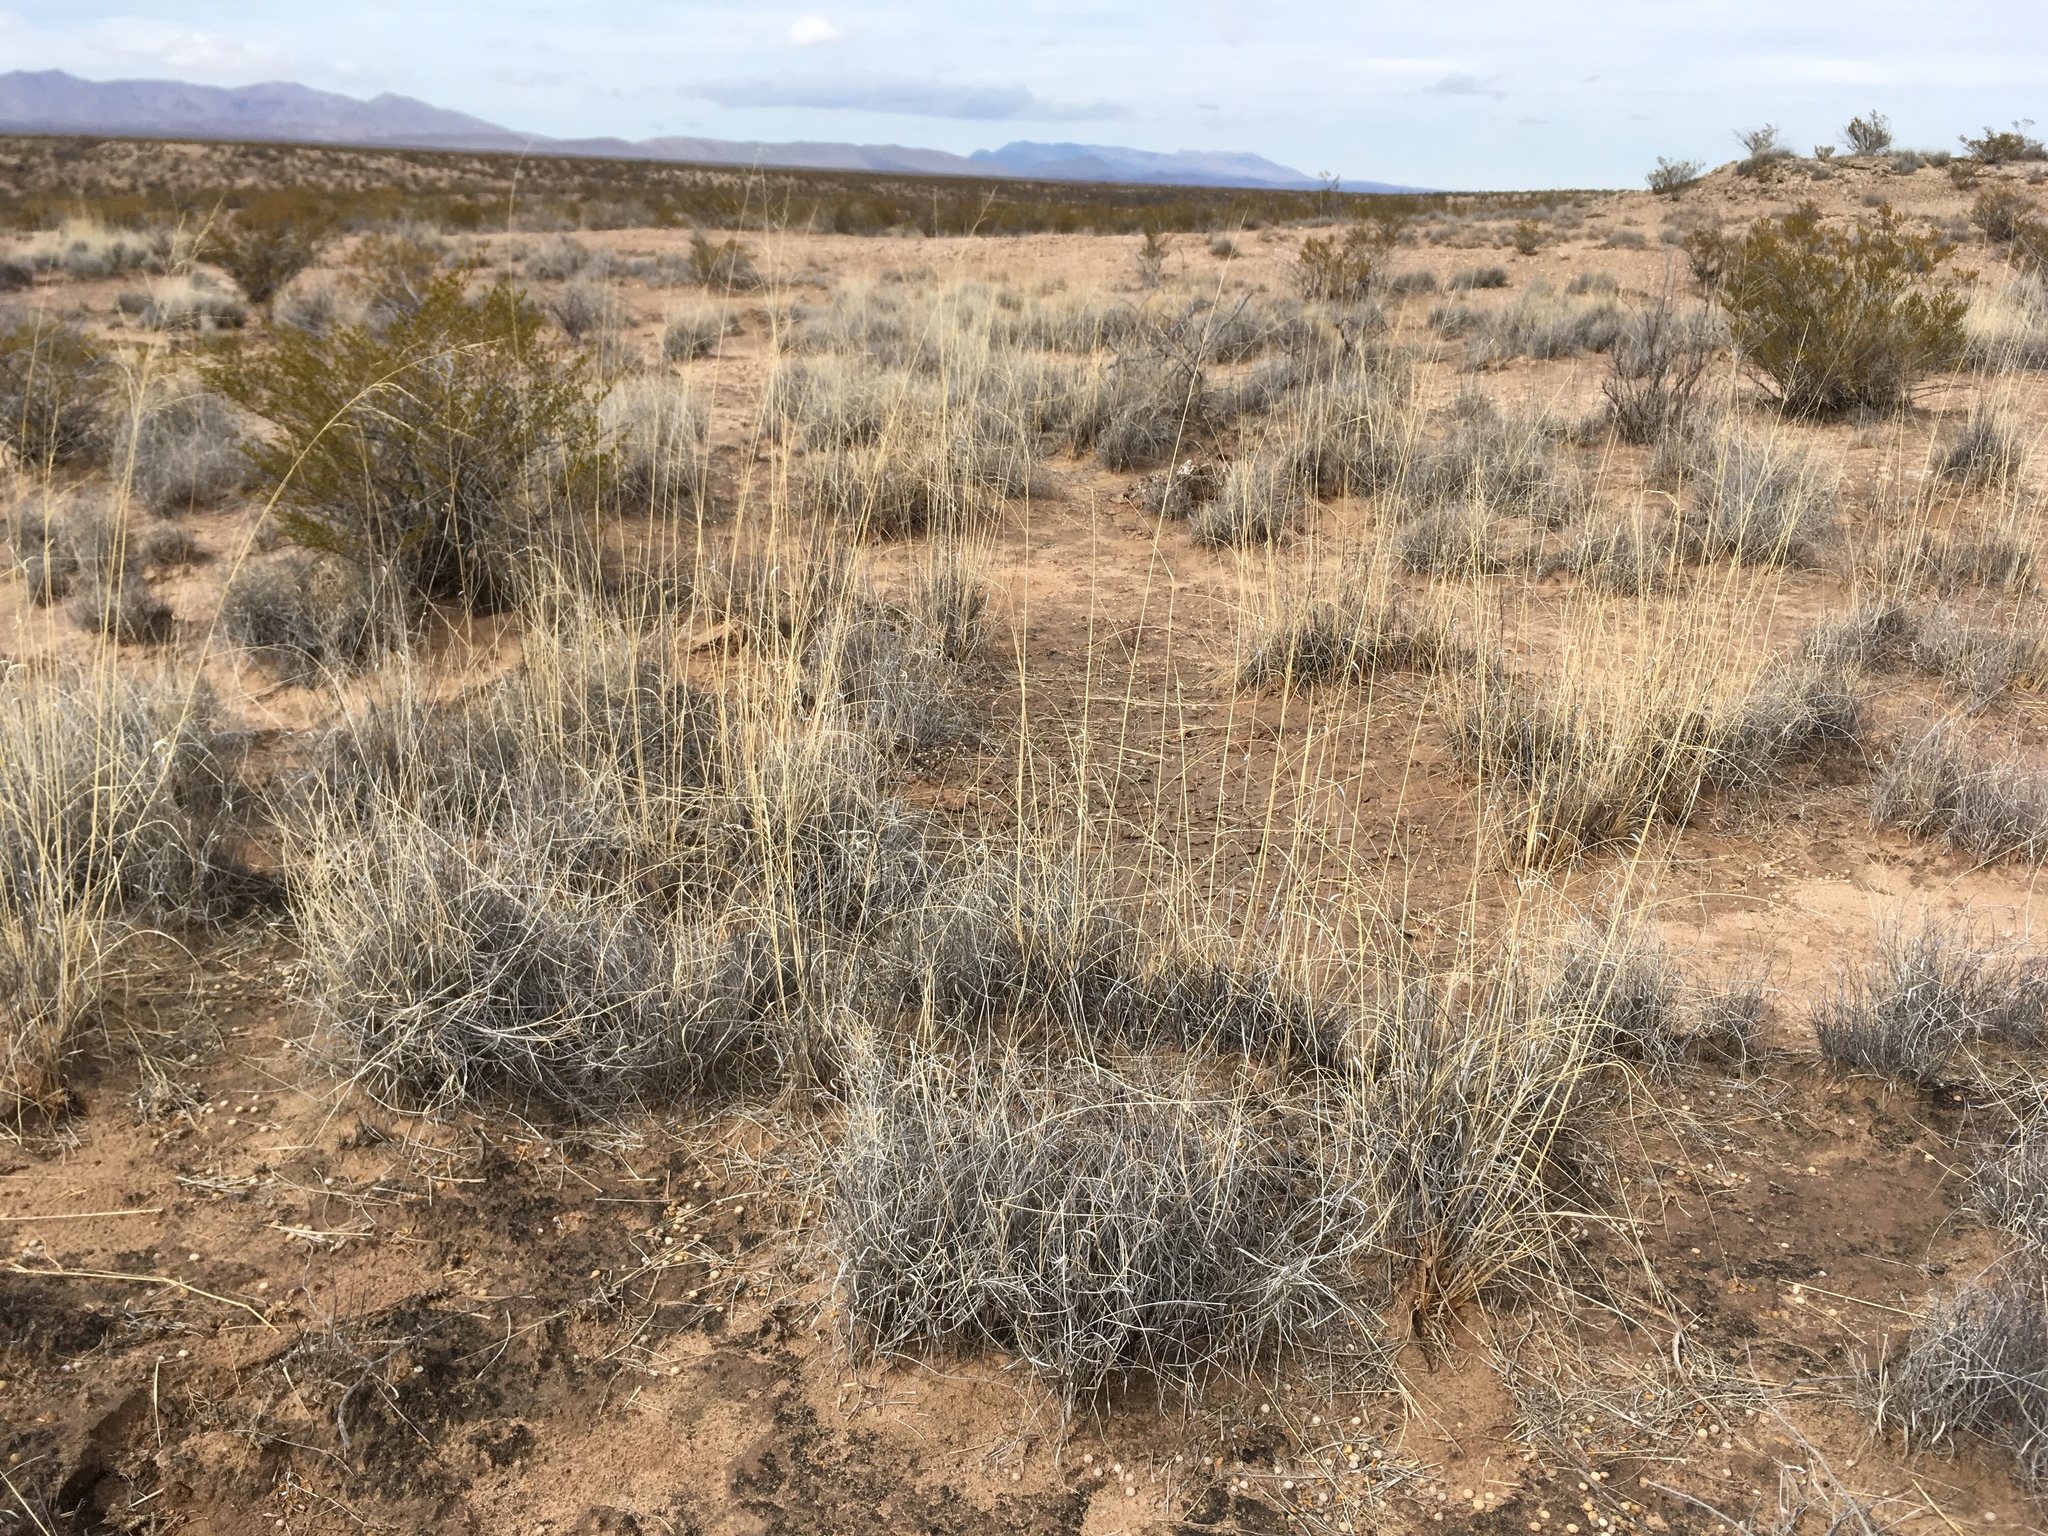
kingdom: Plantae
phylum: Tracheophyta
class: Liliopsida
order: Poales
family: Poaceae
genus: Sporobolus
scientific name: Sporobolus airoides
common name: Alkali sacaton
